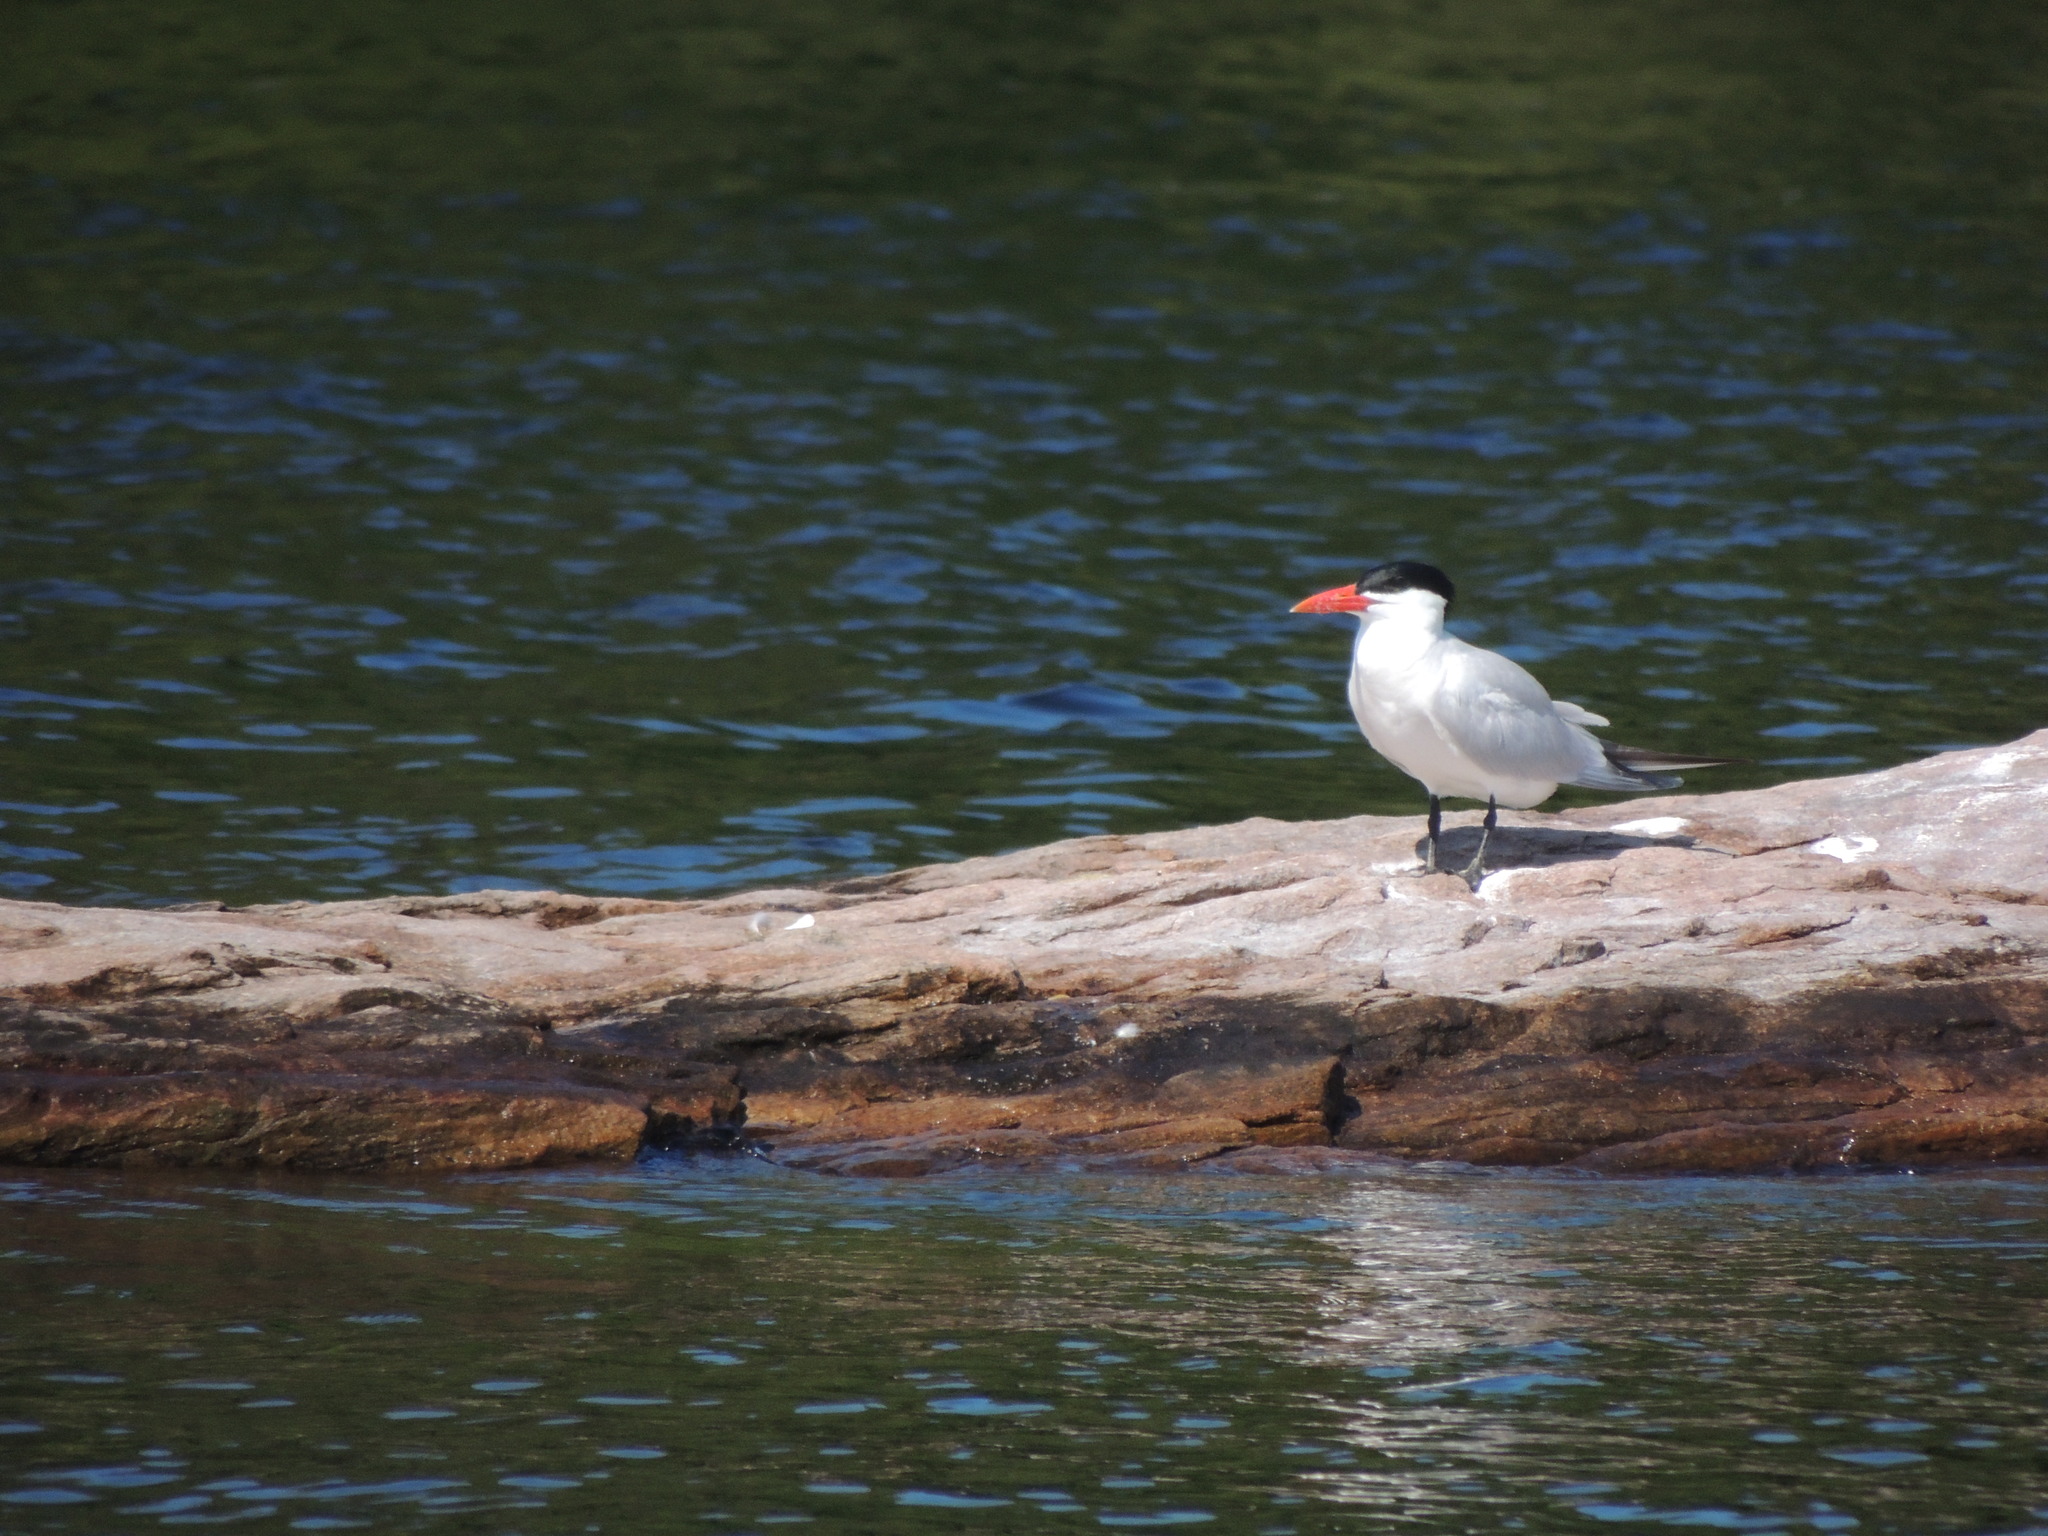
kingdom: Animalia
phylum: Chordata
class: Aves
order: Charadriiformes
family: Laridae
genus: Hydroprogne
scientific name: Hydroprogne caspia
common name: Caspian tern
